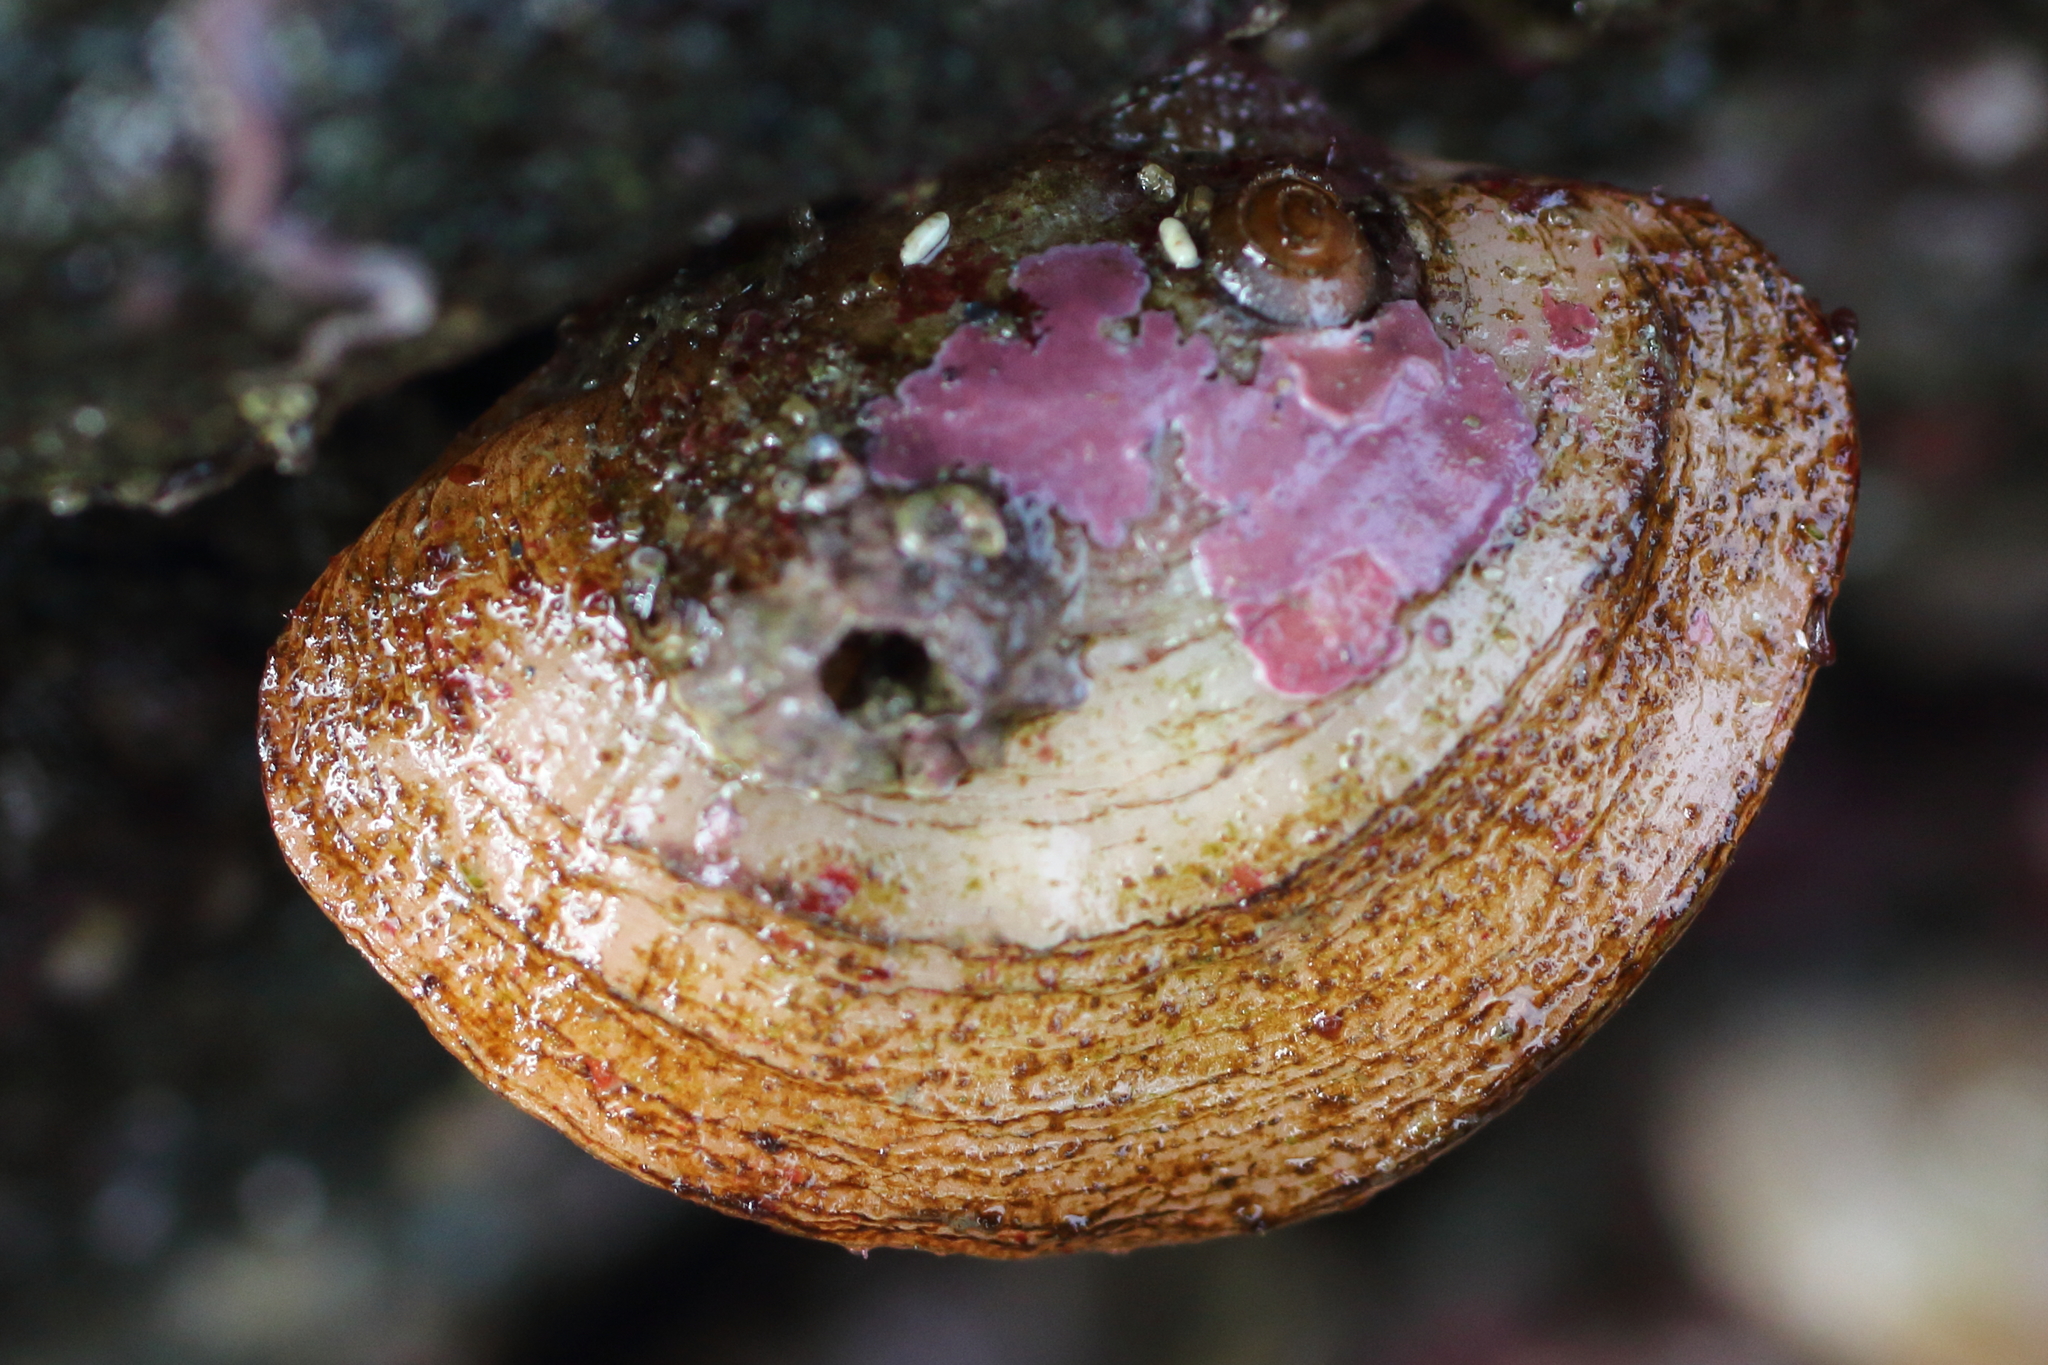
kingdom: Animalia
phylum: Brachiopoda
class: Rhynchonellata
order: Terebratulida
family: Terebrataliidae
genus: Terebratalia
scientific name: Terebratalia transversa
